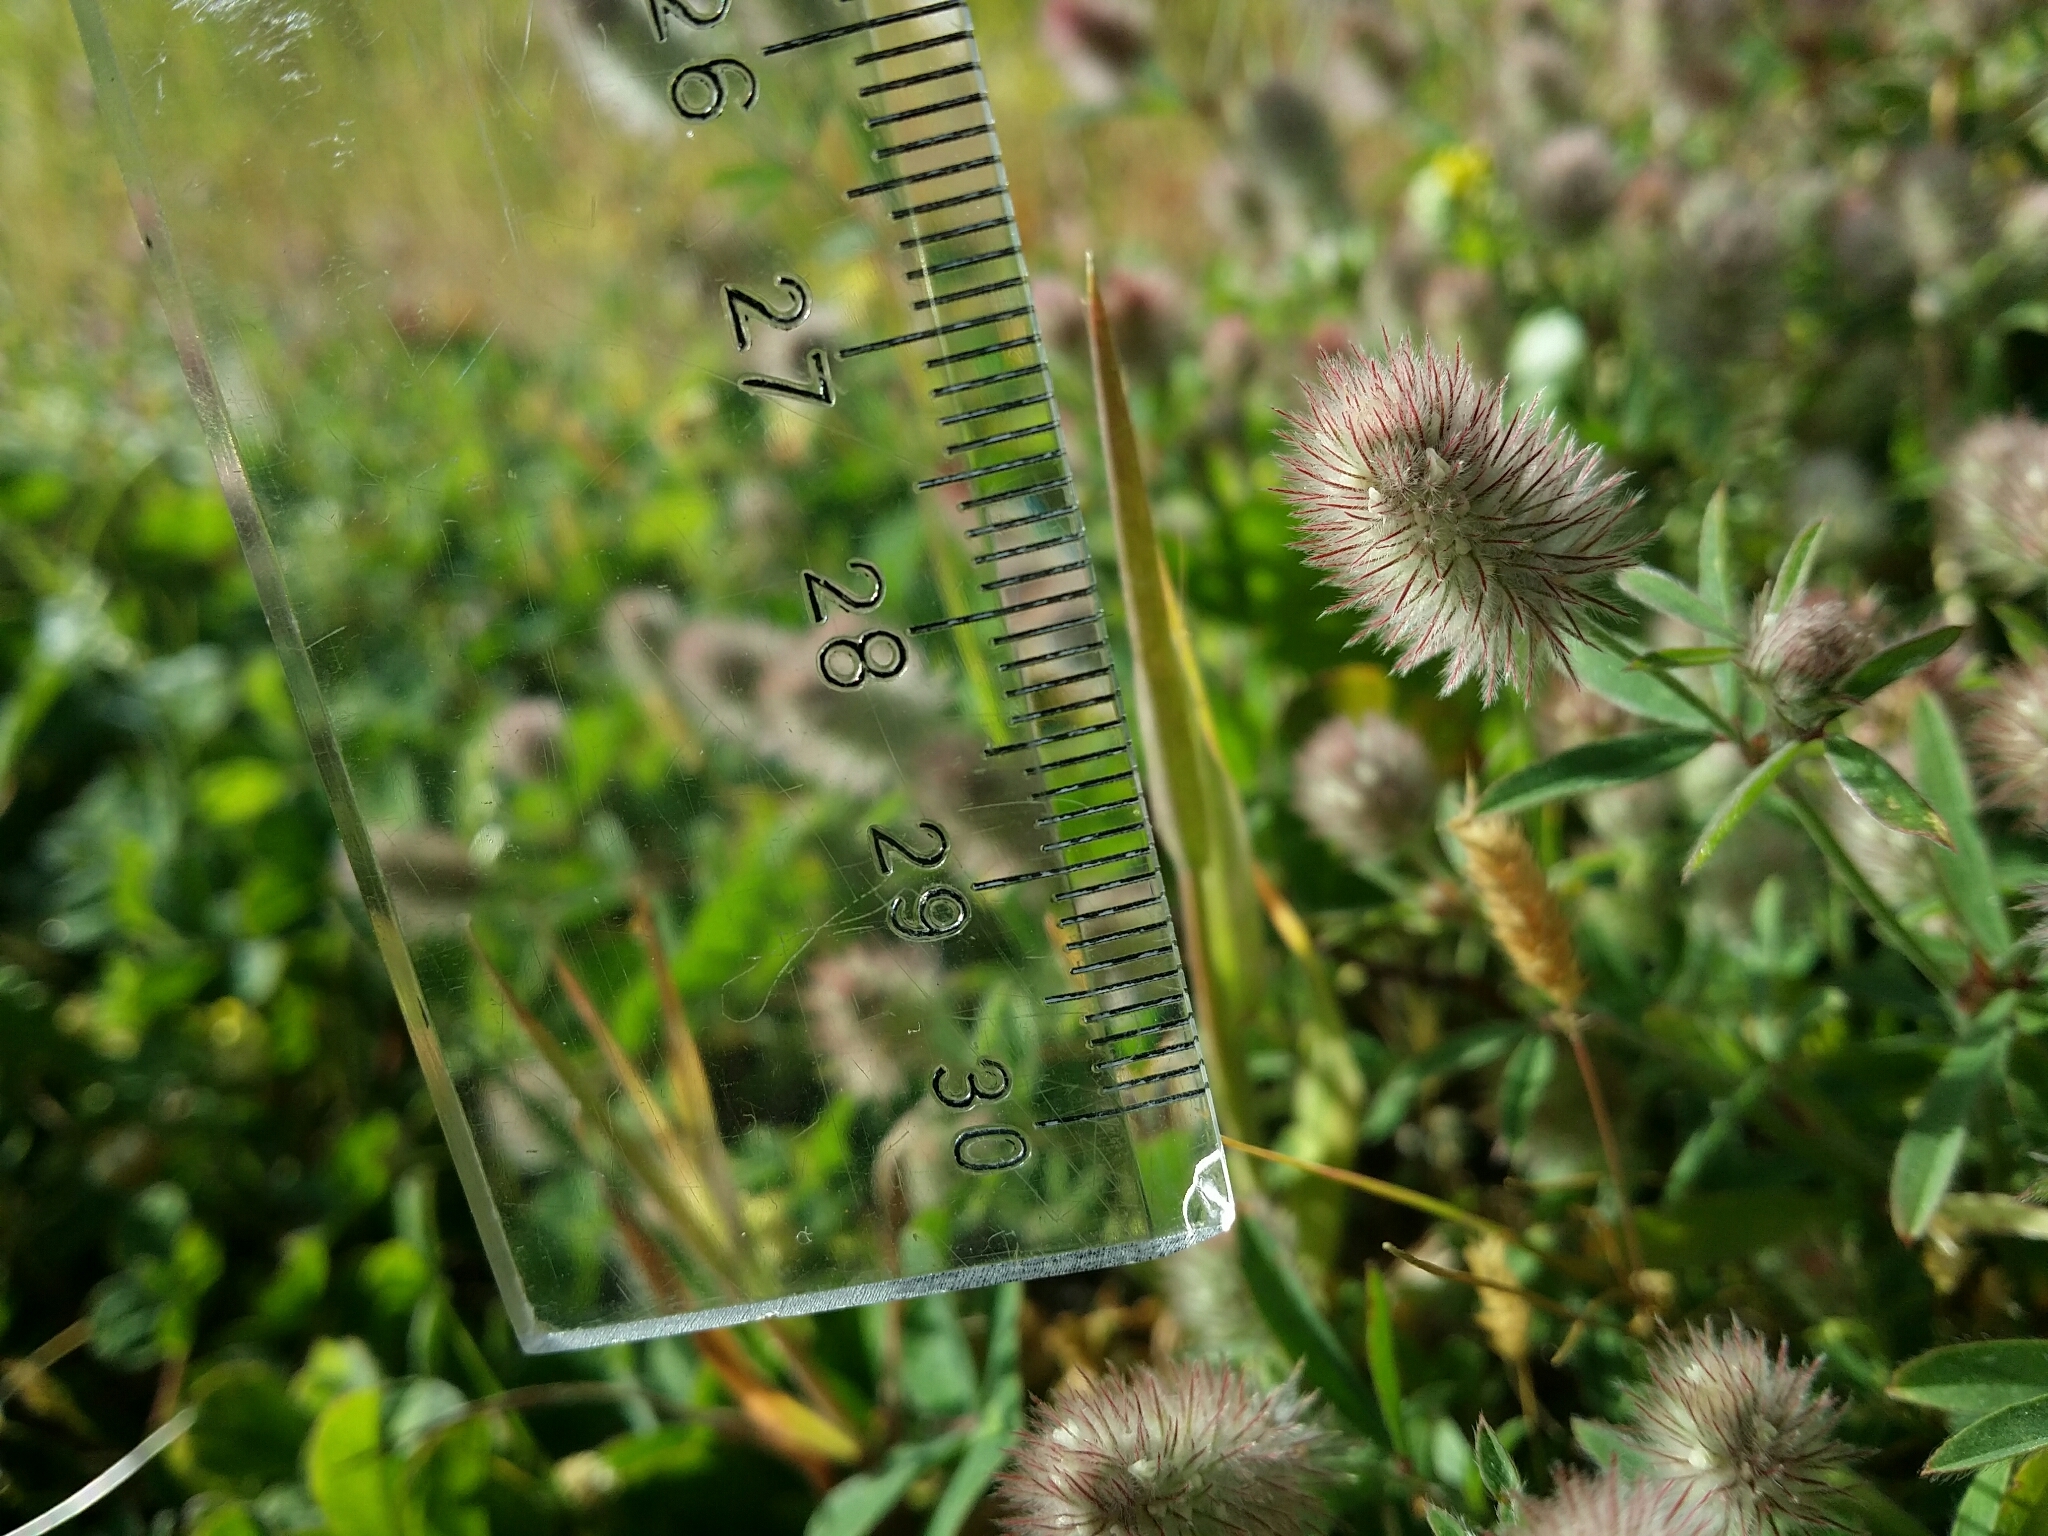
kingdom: Plantae
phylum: Tracheophyta
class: Magnoliopsida
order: Fabales
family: Fabaceae
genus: Trifolium
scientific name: Trifolium arvense
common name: Hare's-foot clover
